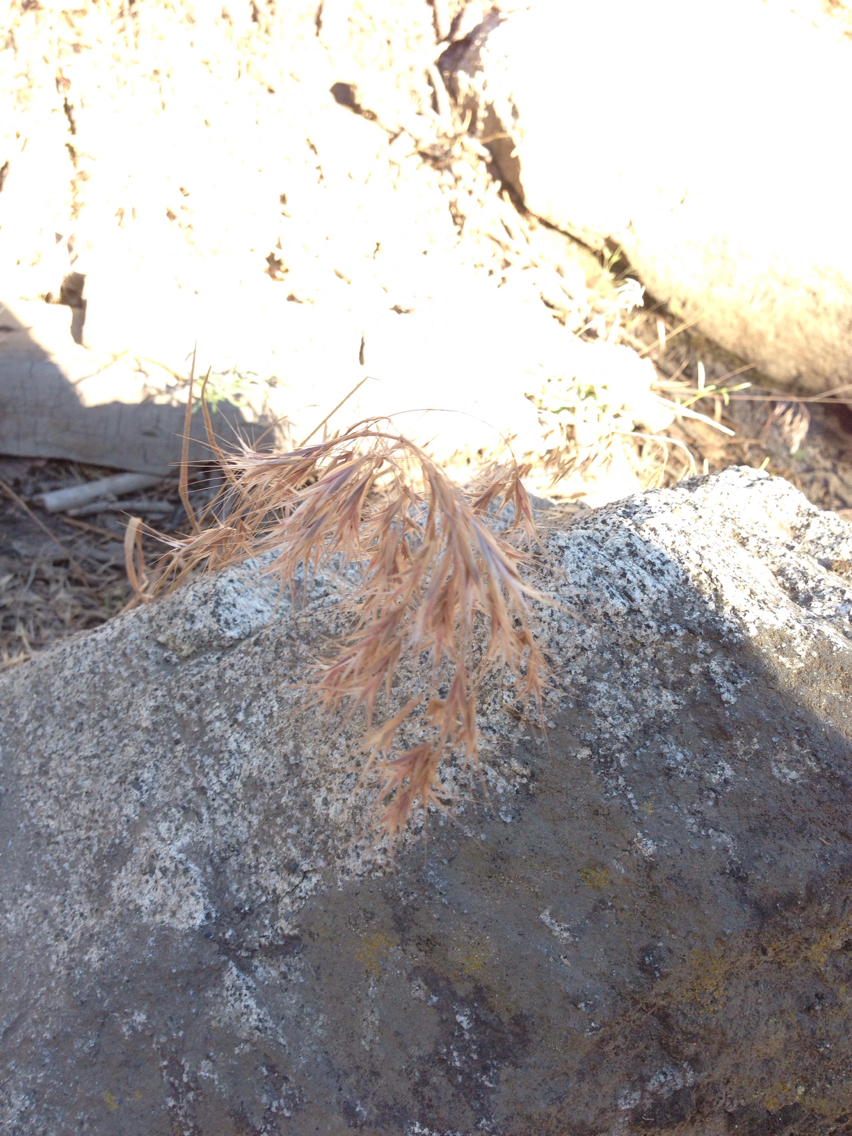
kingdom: Plantae
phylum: Tracheophyta
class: Liliopsida
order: Poales
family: Poaceae
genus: Bromus
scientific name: Bromus tectorum
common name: Cheatgrass
